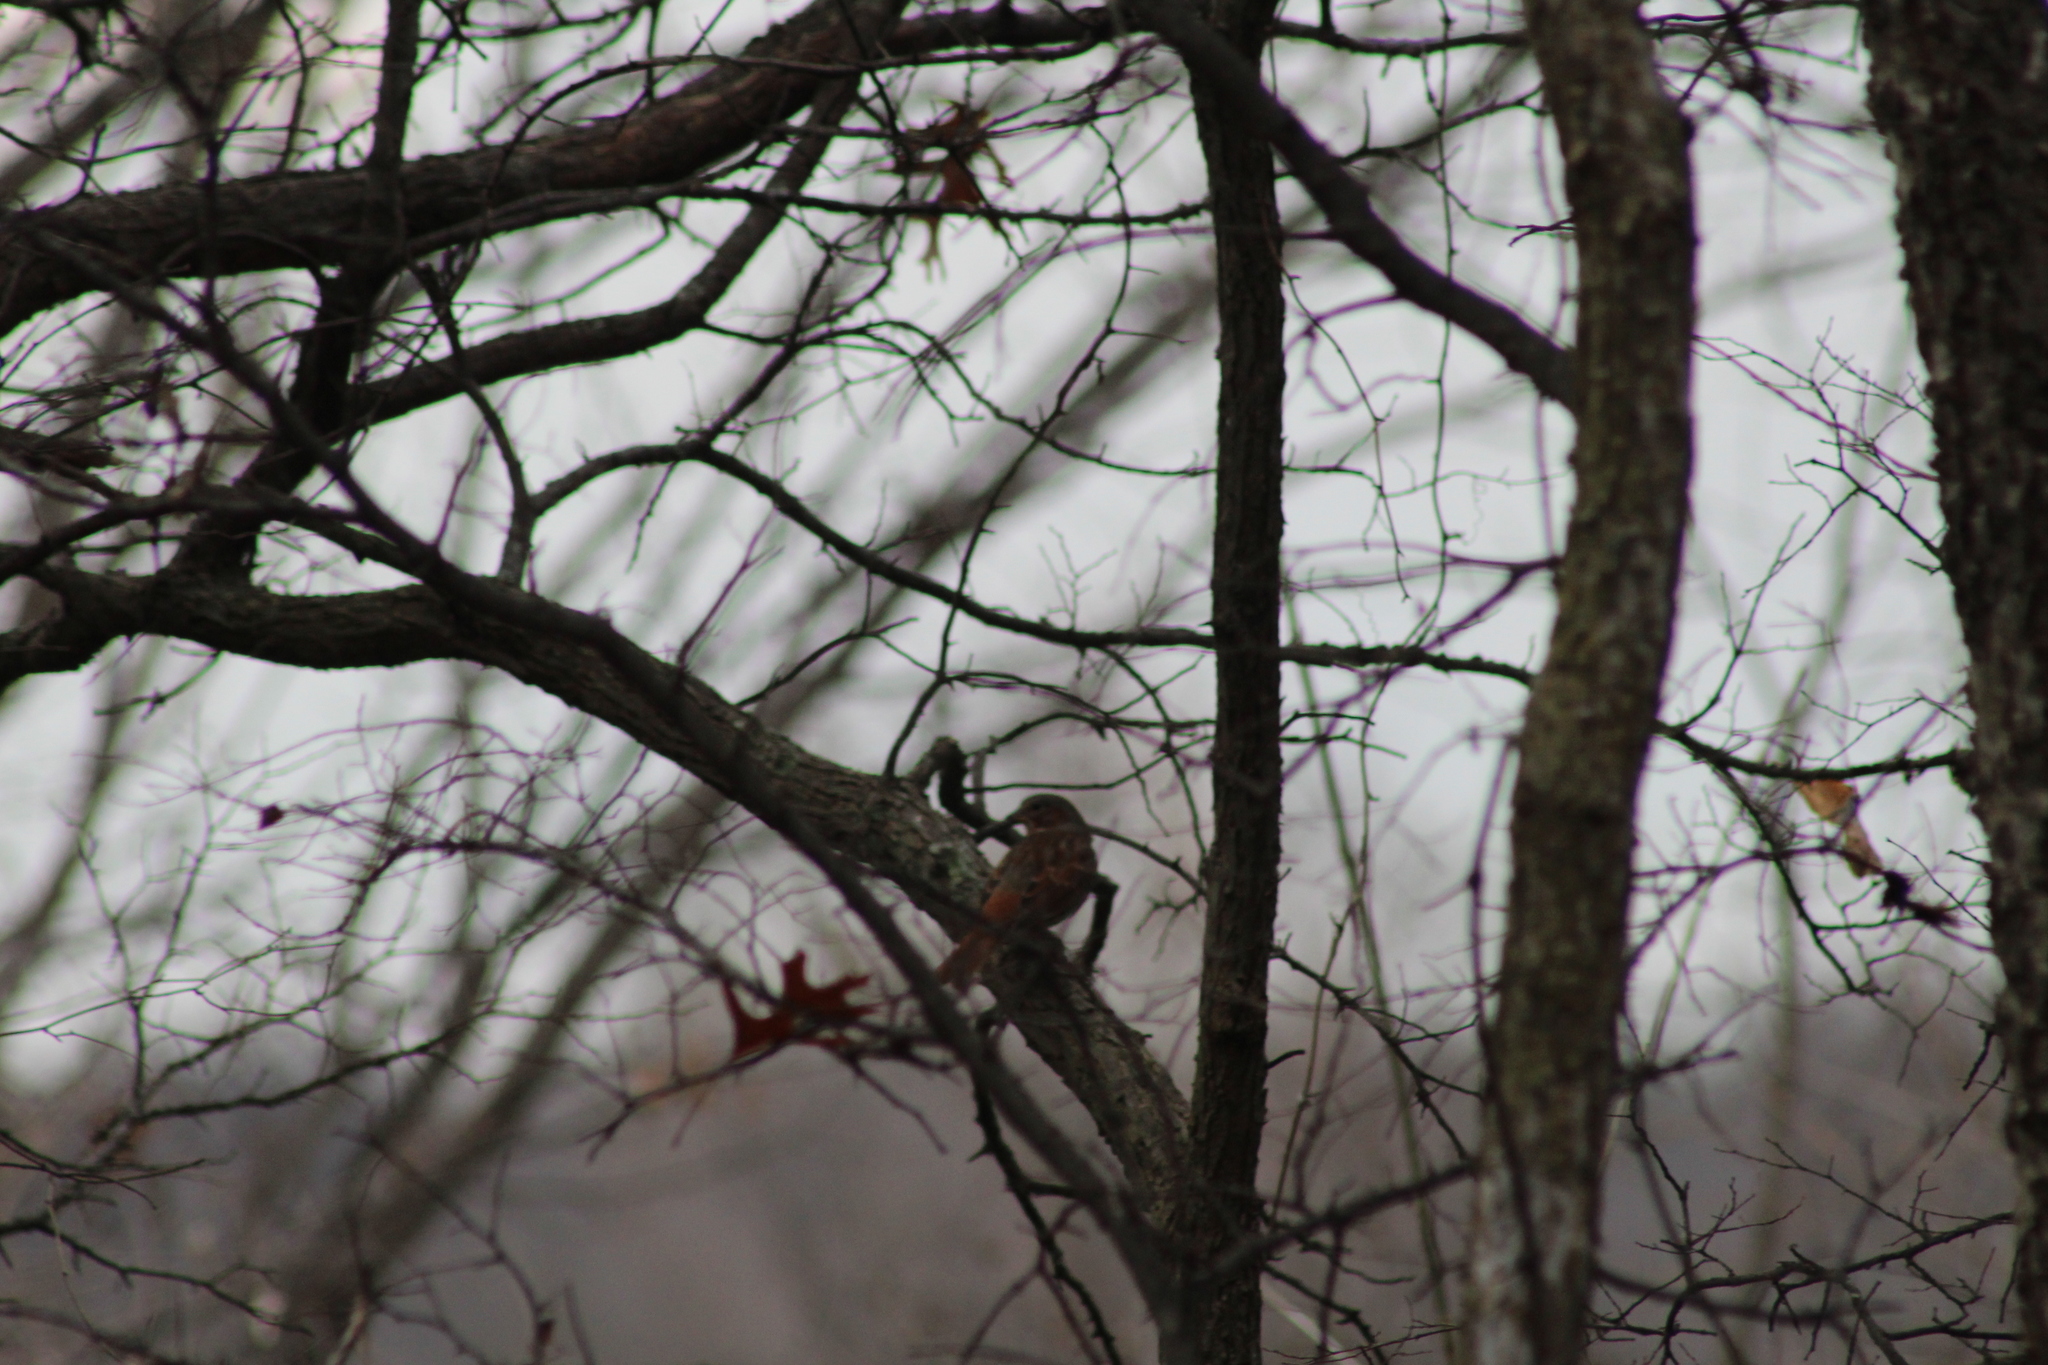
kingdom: Animalia
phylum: Chordata
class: Aves
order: Passeriformes
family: Passerellidae
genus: Passerella
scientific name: Passerella iliaca
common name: Fox sparrow
